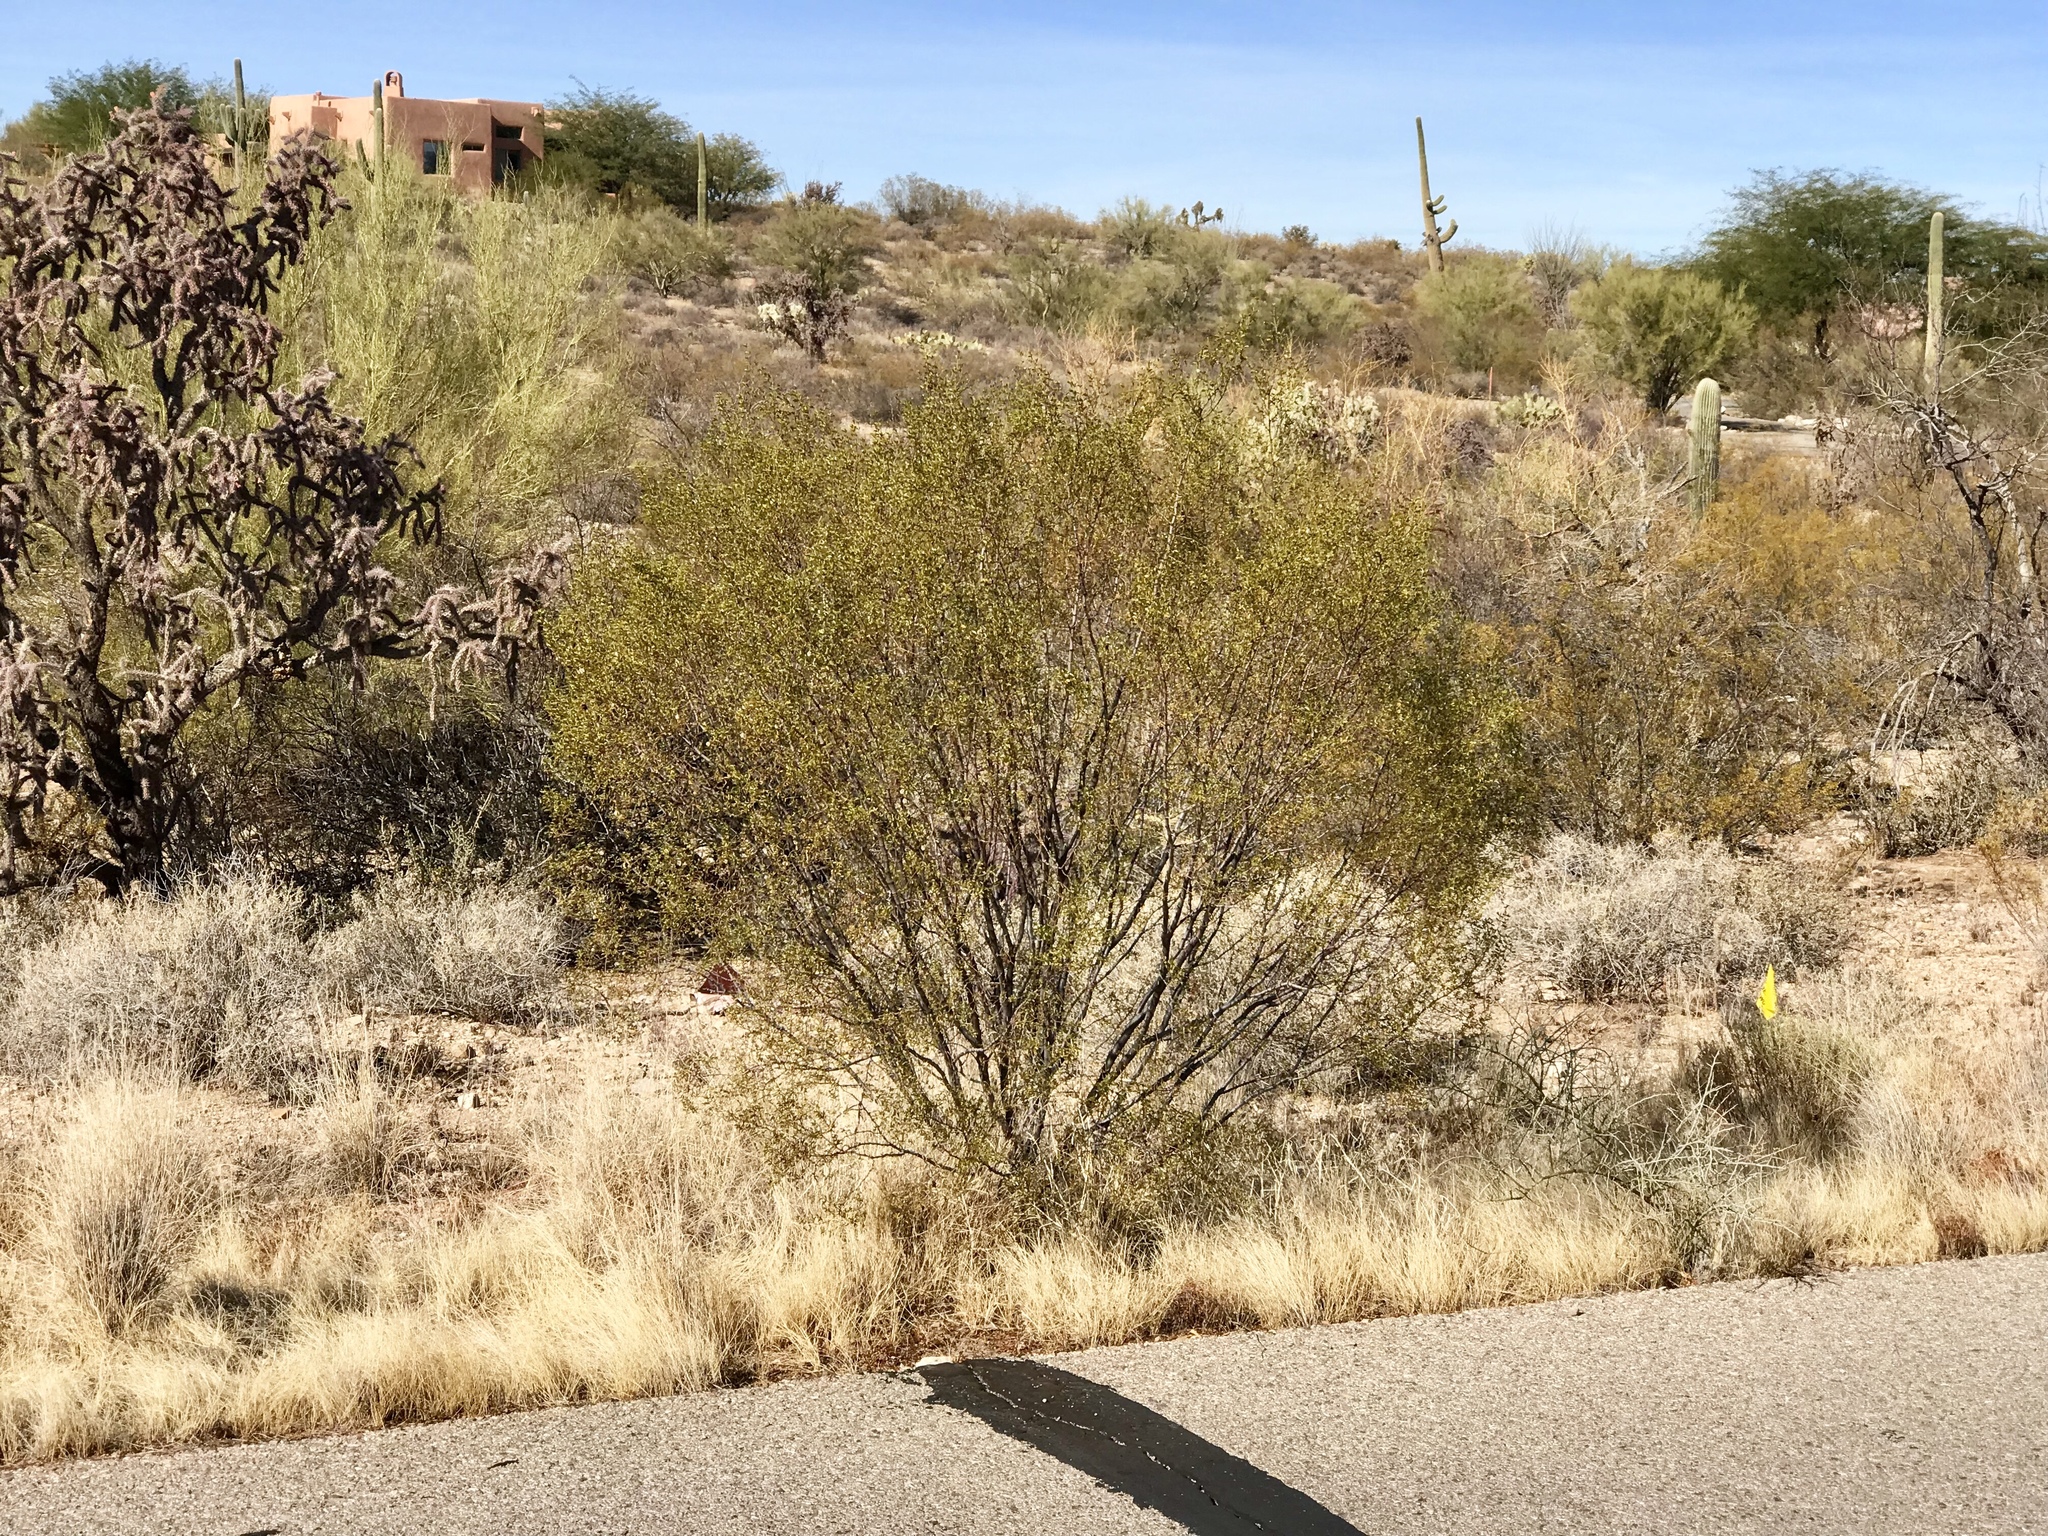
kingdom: Plantae
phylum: Tracheophyta
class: Magnoliopsida
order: Zygophyllales
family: Zygophyllaceae
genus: Larrea
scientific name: Larrea tridentata
